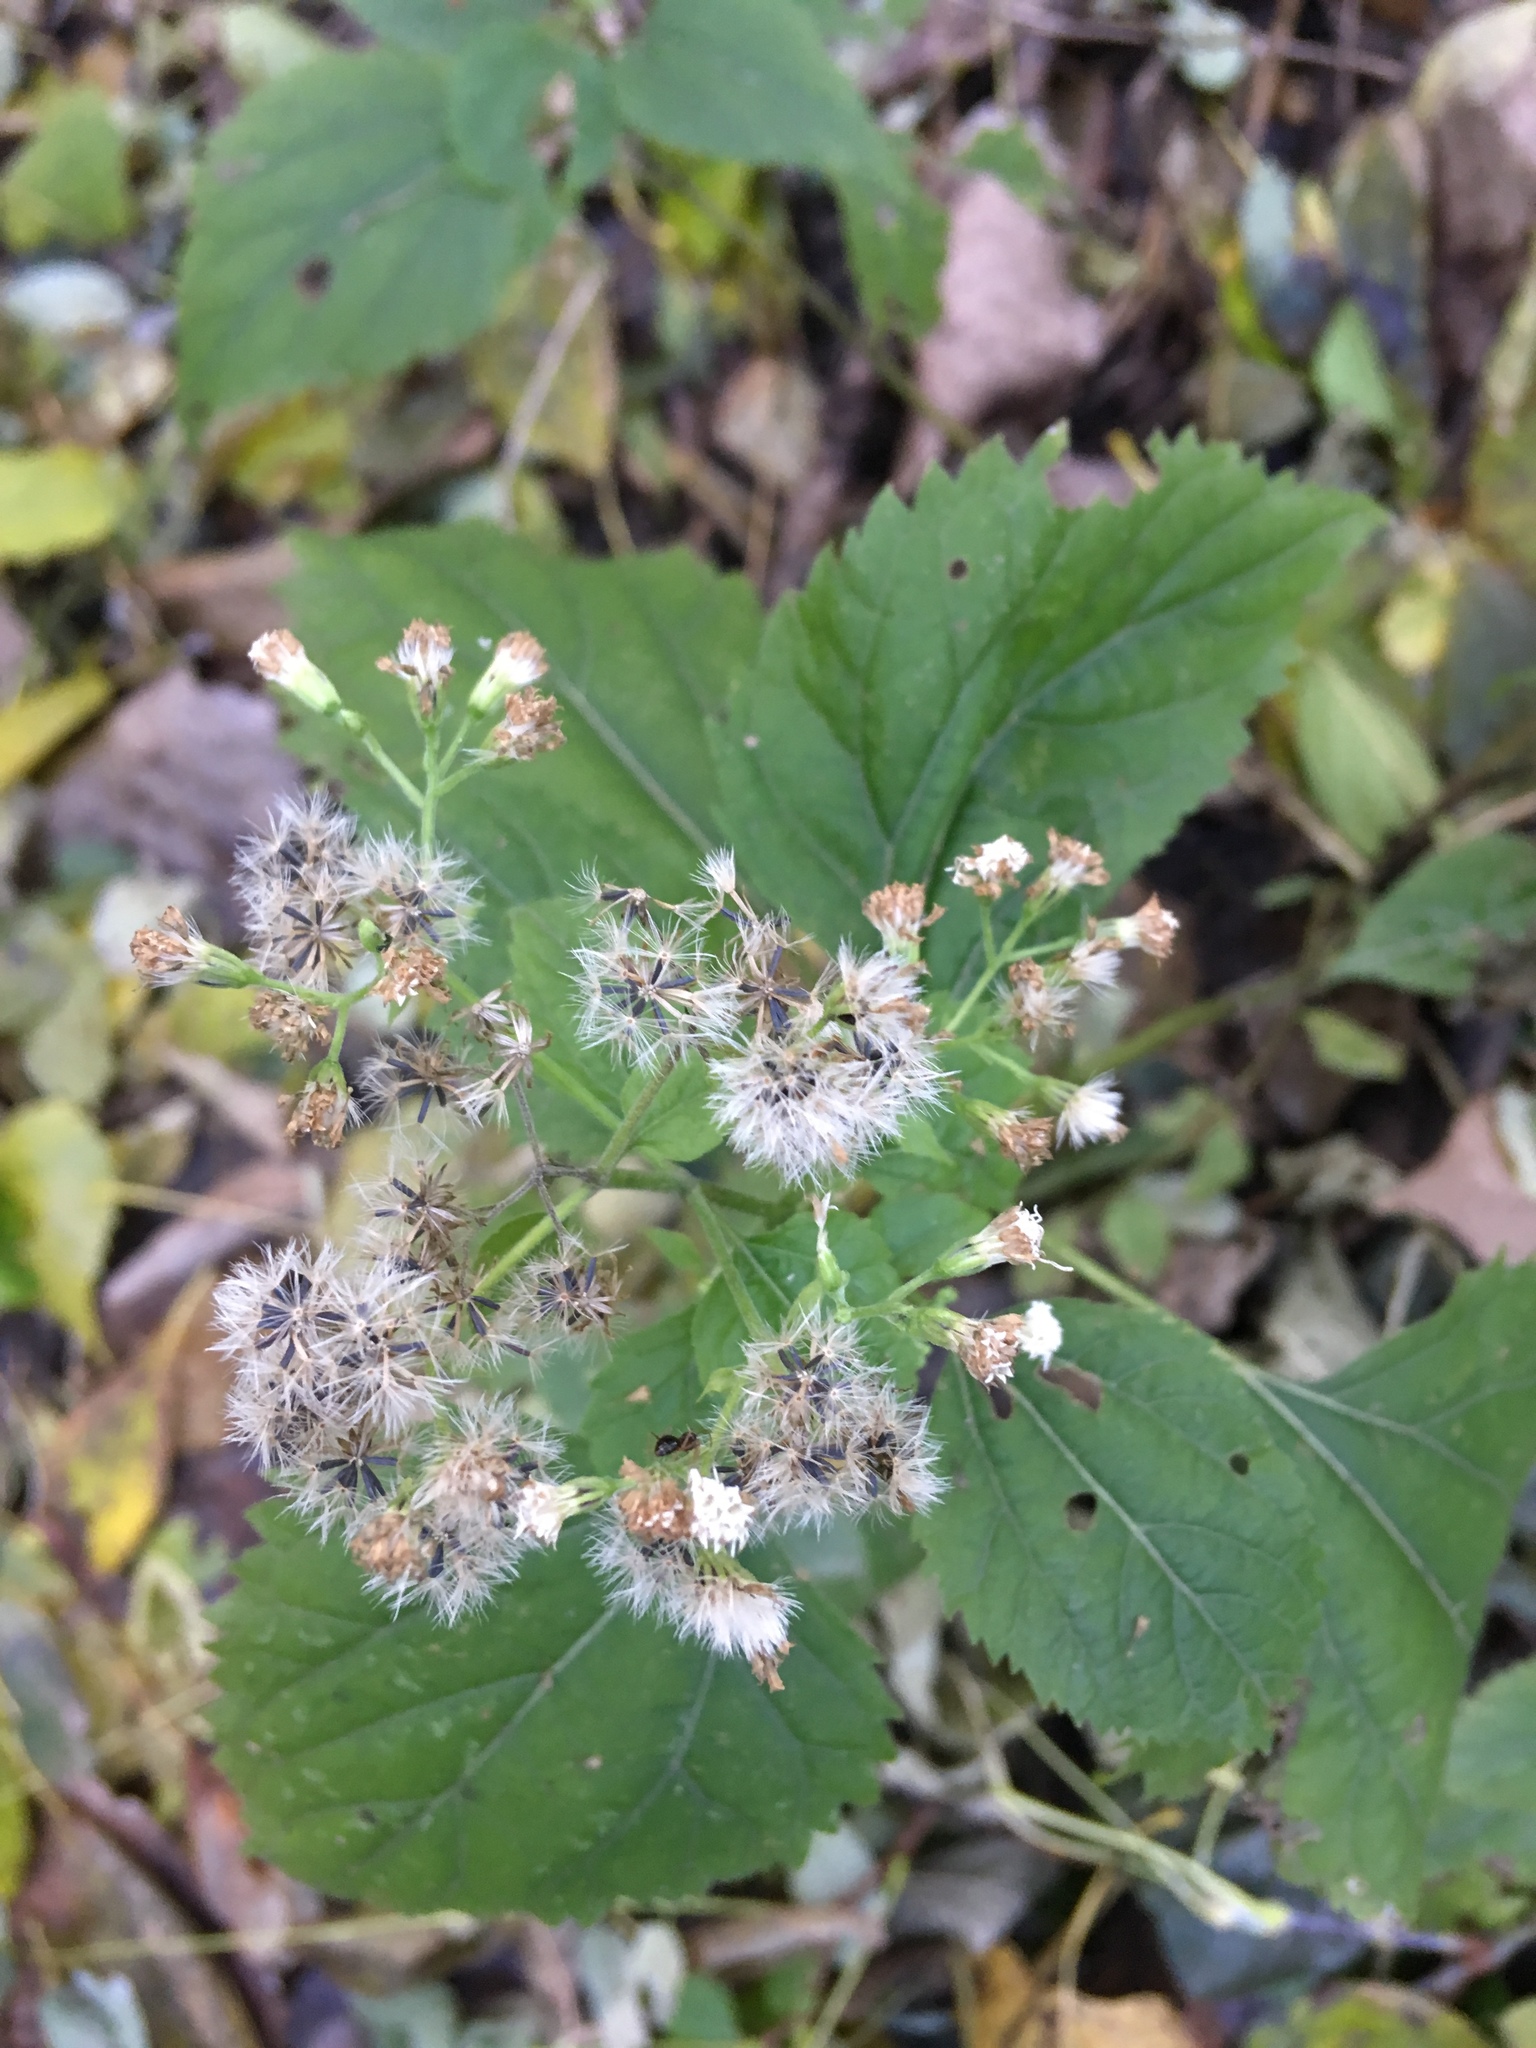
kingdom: Plantae
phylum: Tracheophyta
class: Magnoliopsida
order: Asterales
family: Asteraceae
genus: Ageratina
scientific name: Ageratina altissima
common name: White snakeroot
